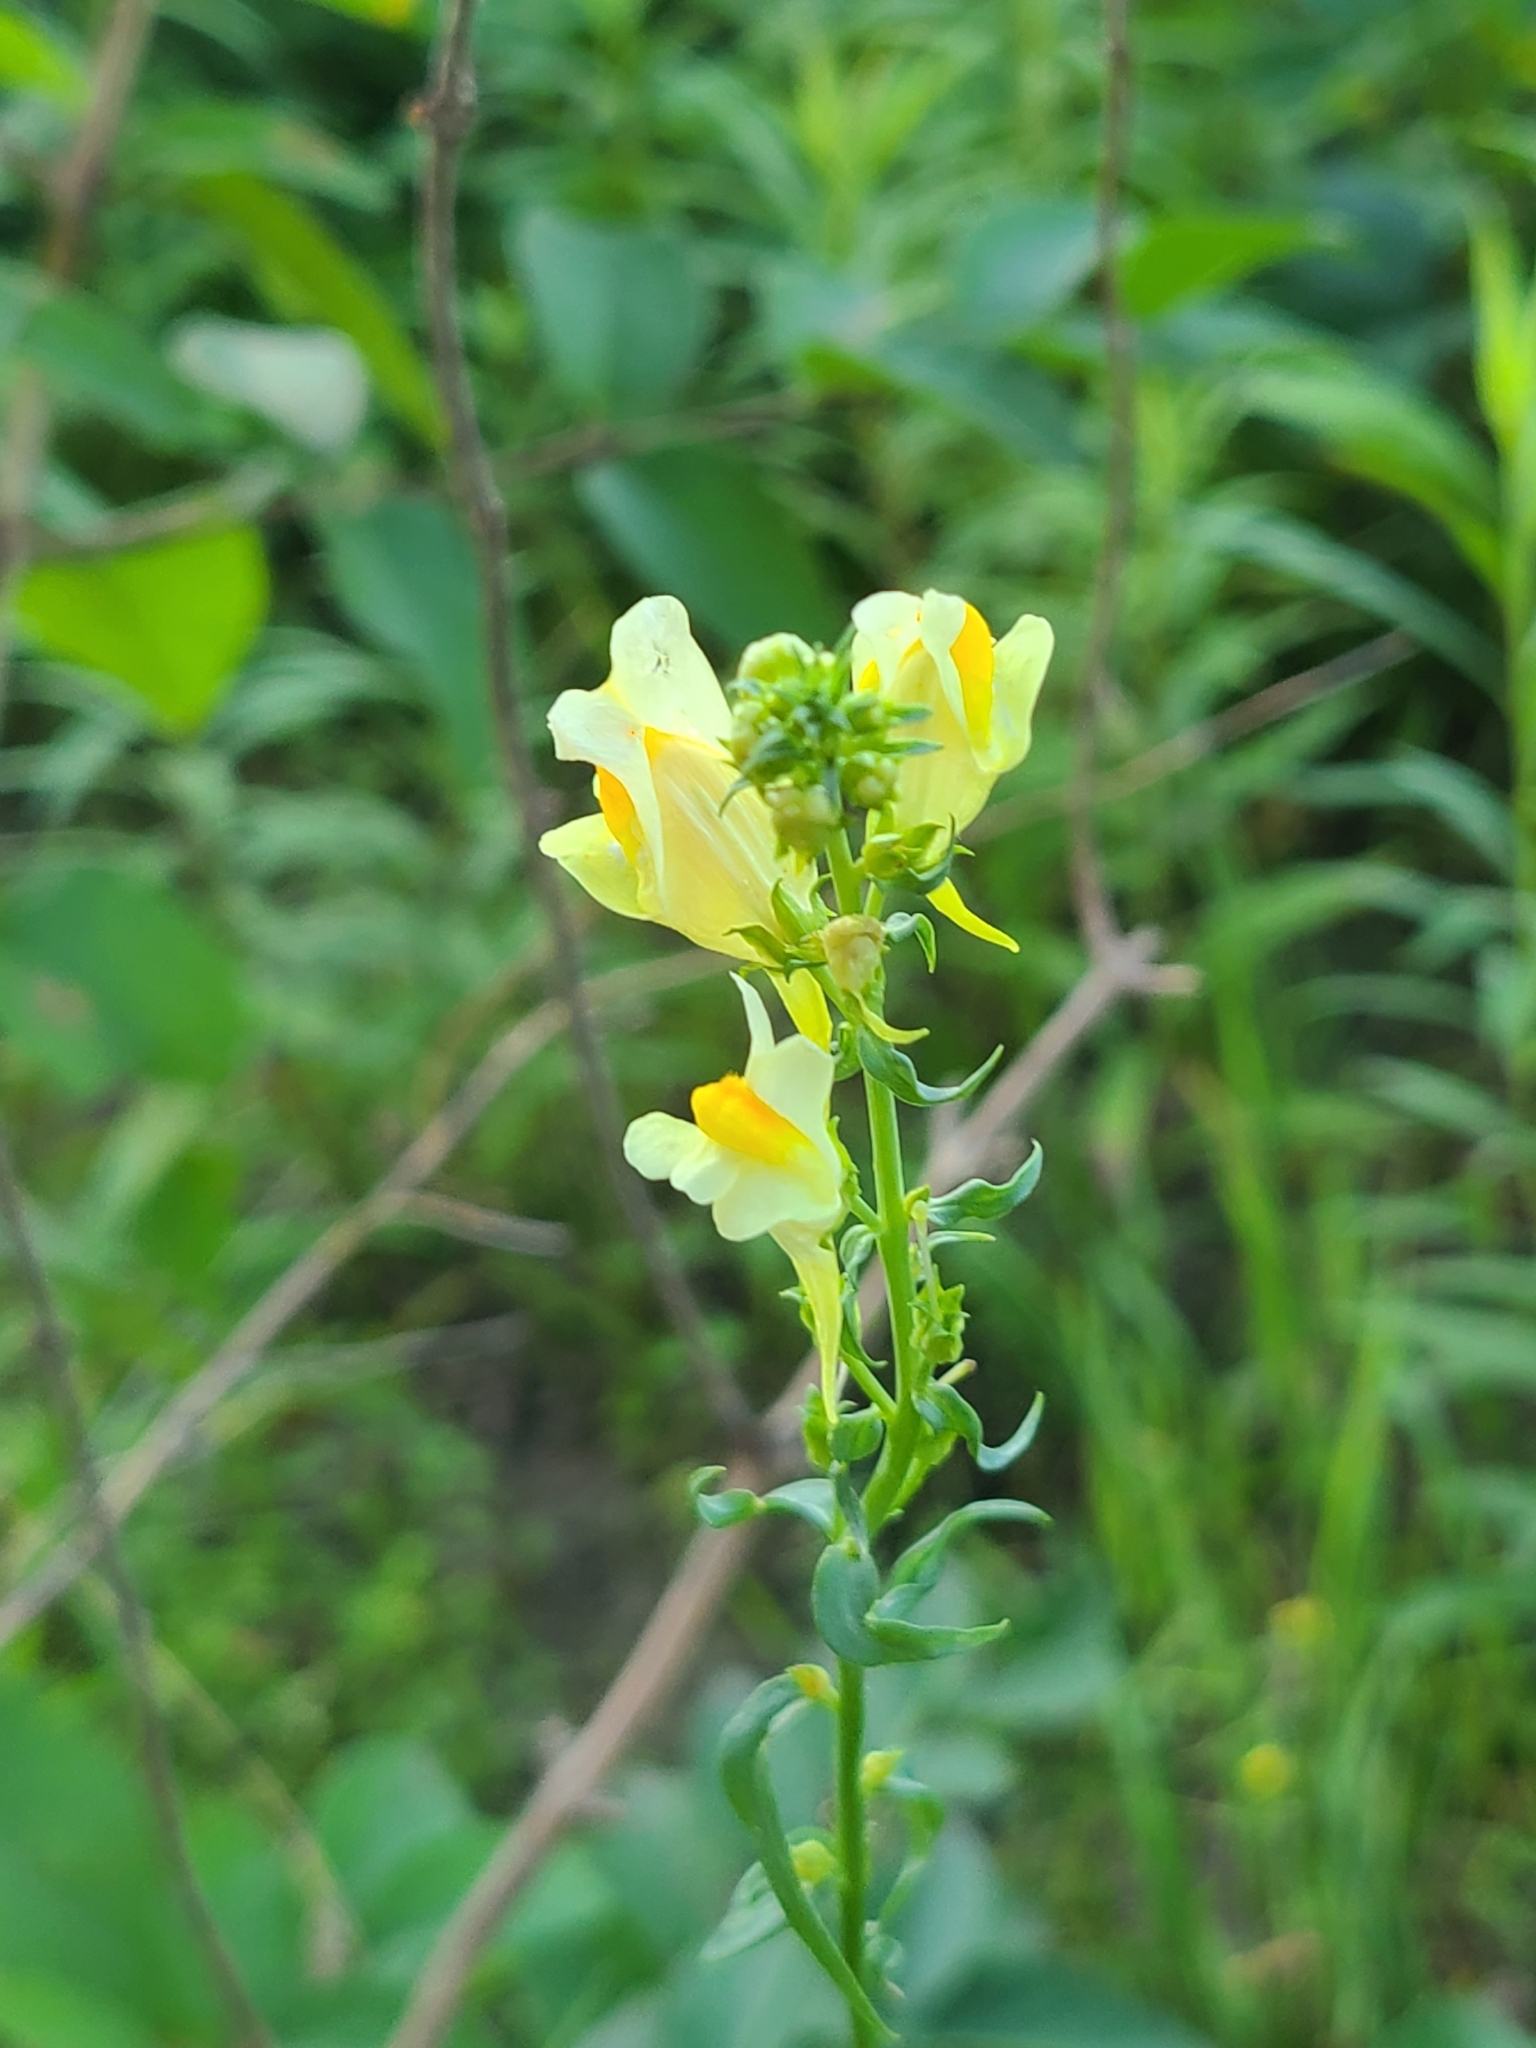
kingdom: Plantae
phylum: Tracheophyta
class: Magnoliopsida
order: Lamiales
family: Plantaginaceae
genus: Linaria
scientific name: Linaria vulgaris
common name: Butter and eggs
